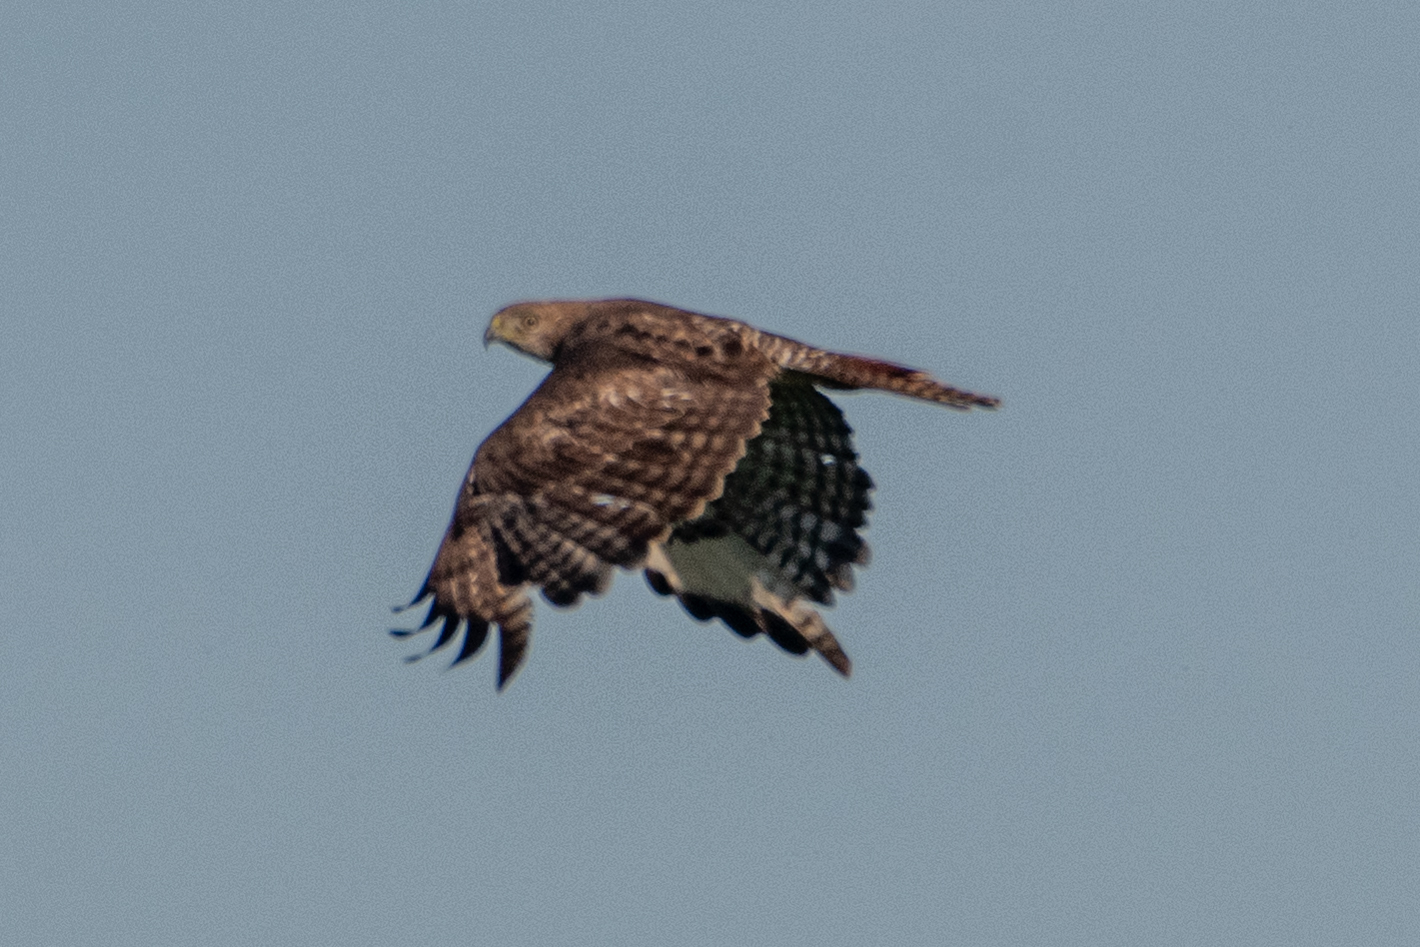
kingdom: Animalia
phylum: Chordata
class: Aves
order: Accipitriformes
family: Accipitridae
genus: Buteo
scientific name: Buteo jamaicensis
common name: Red-tailed hawk
